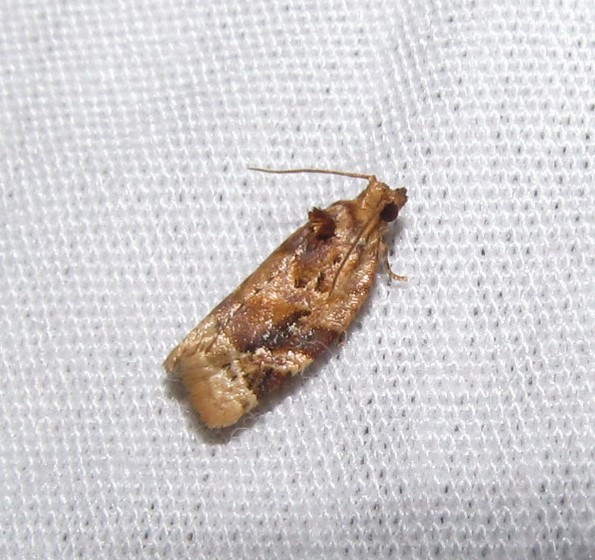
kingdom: Animalia
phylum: Arthropoda
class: Insecta
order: Lepidoptera
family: Tortricidae
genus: Argyrotaenia
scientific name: Argyrotaenia velutinana
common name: Red-banded leafroller moth
